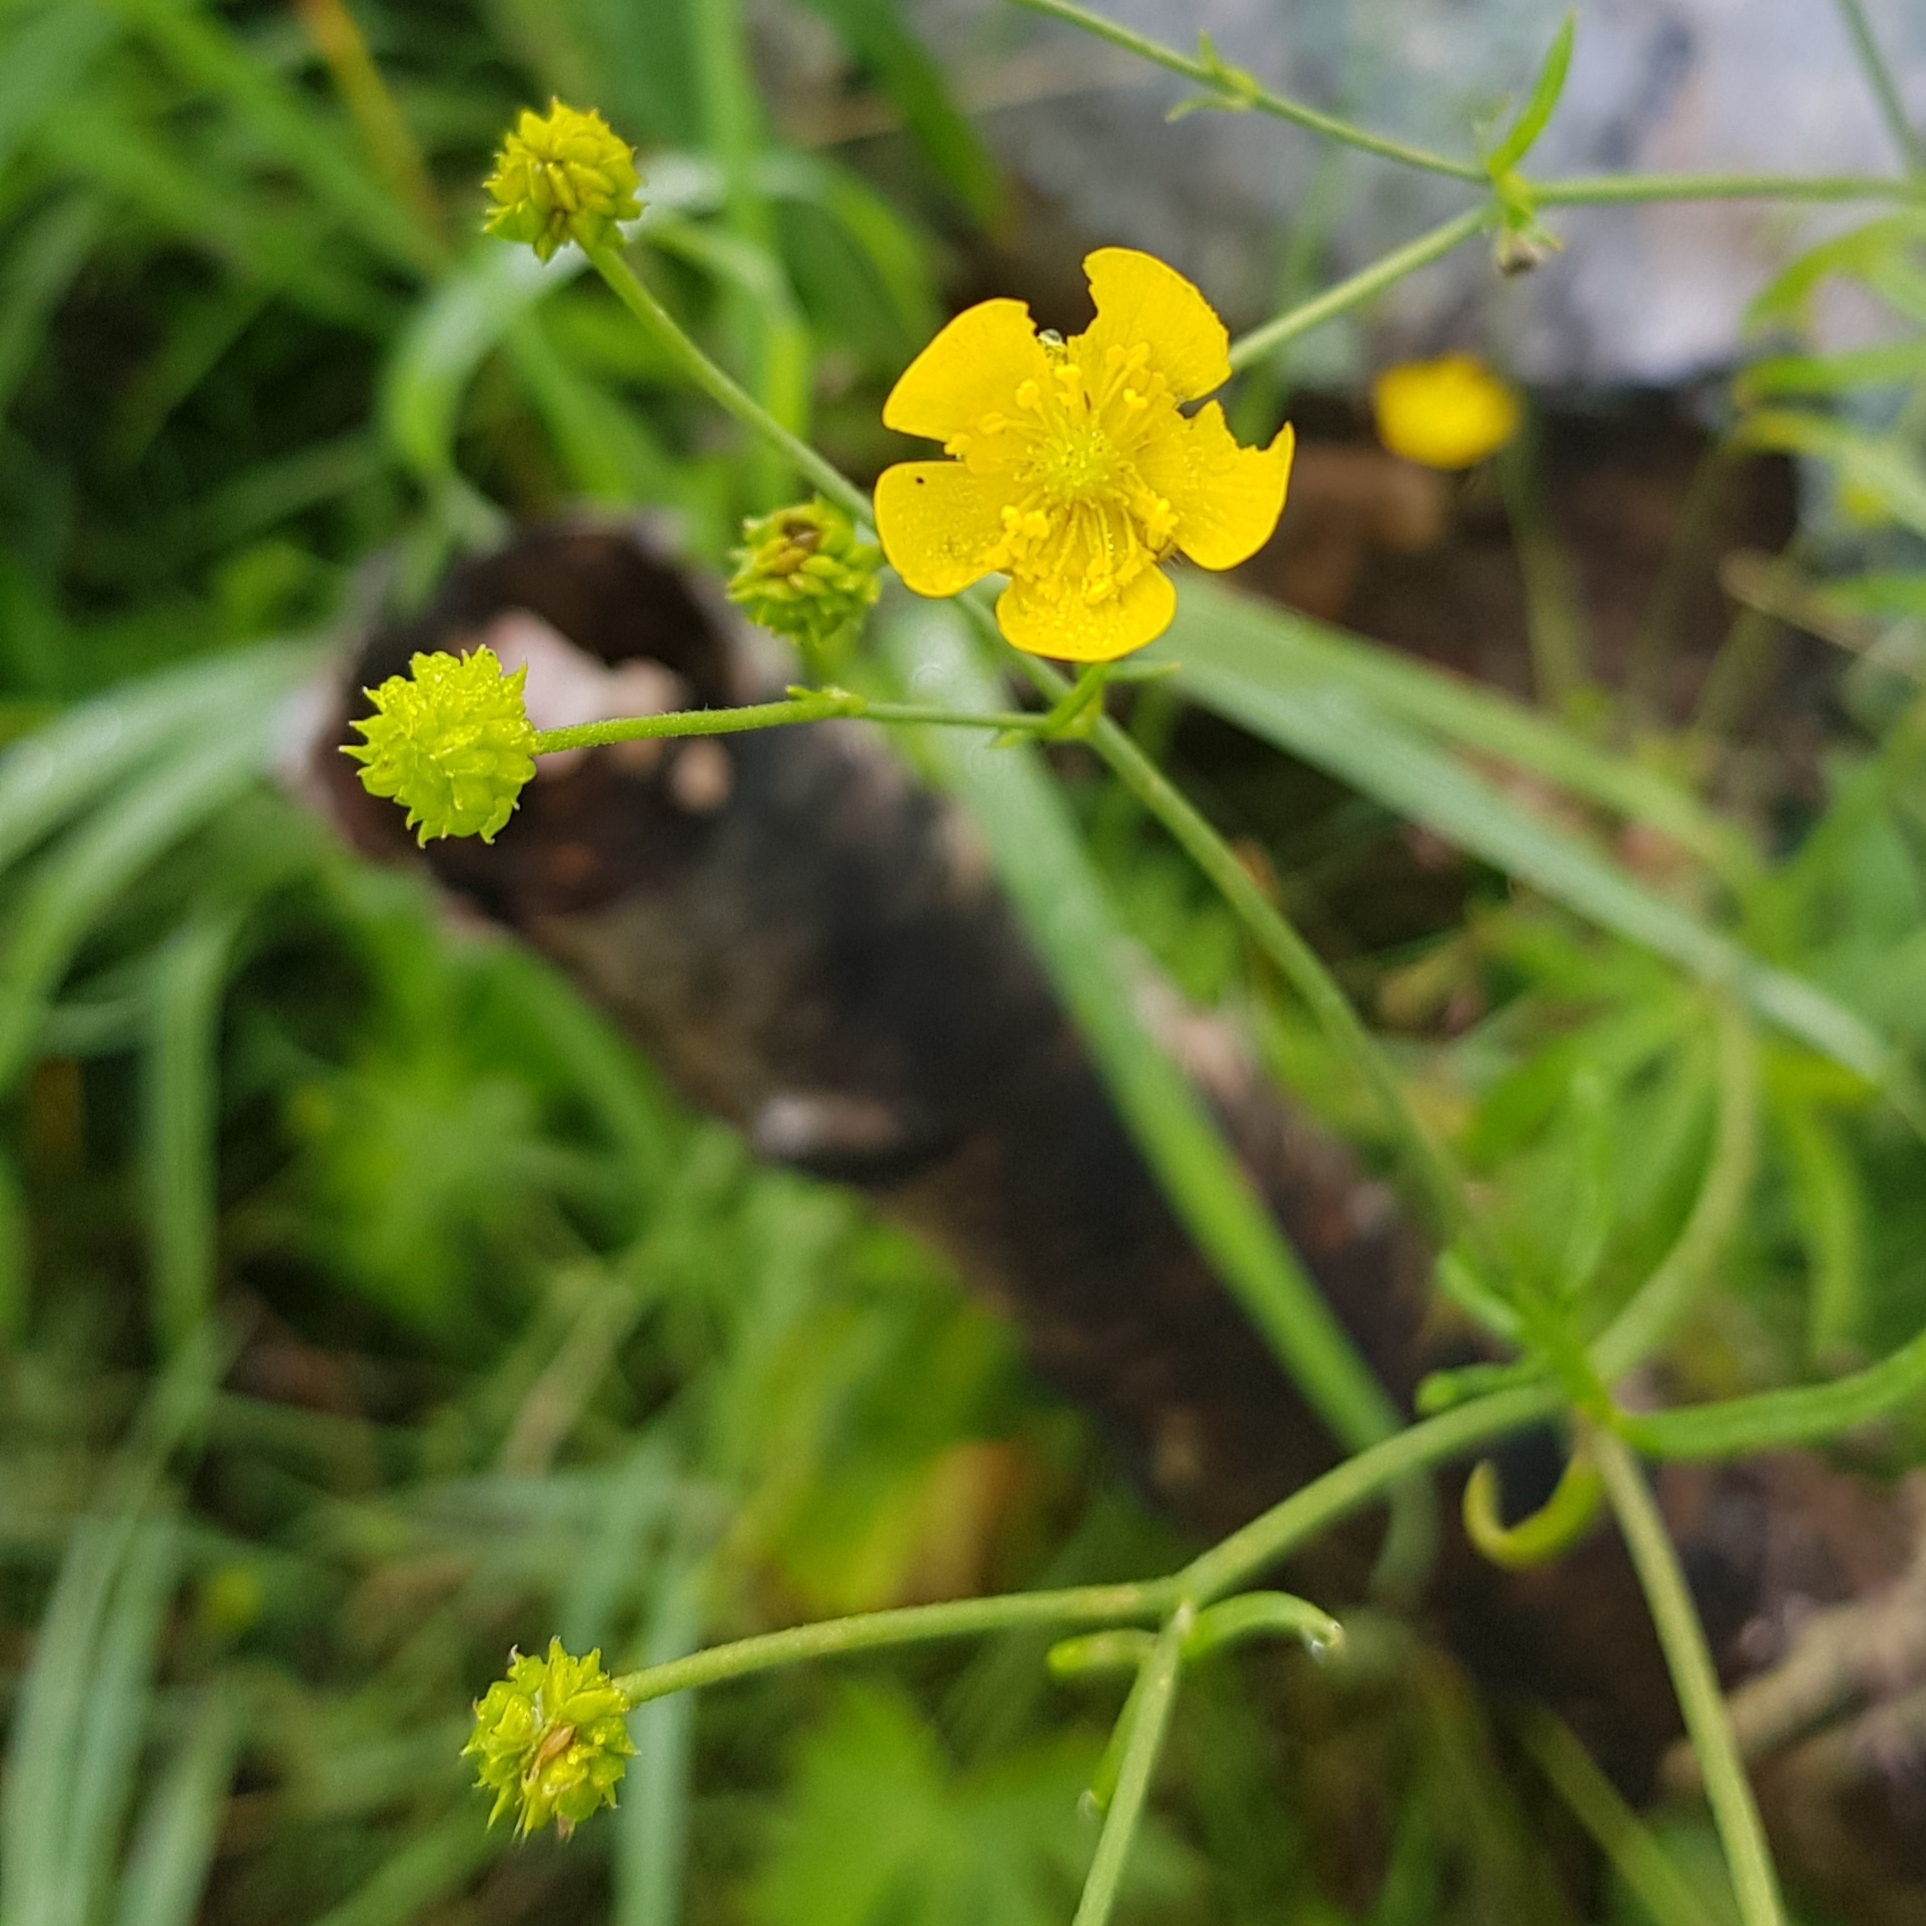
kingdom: Plantae
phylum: Tracheophyta
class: Magnoliopsida
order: Ranunculales
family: Ranunculaceae
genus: Ranunculus
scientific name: Ranunculus acris
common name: Meadow buttercup
